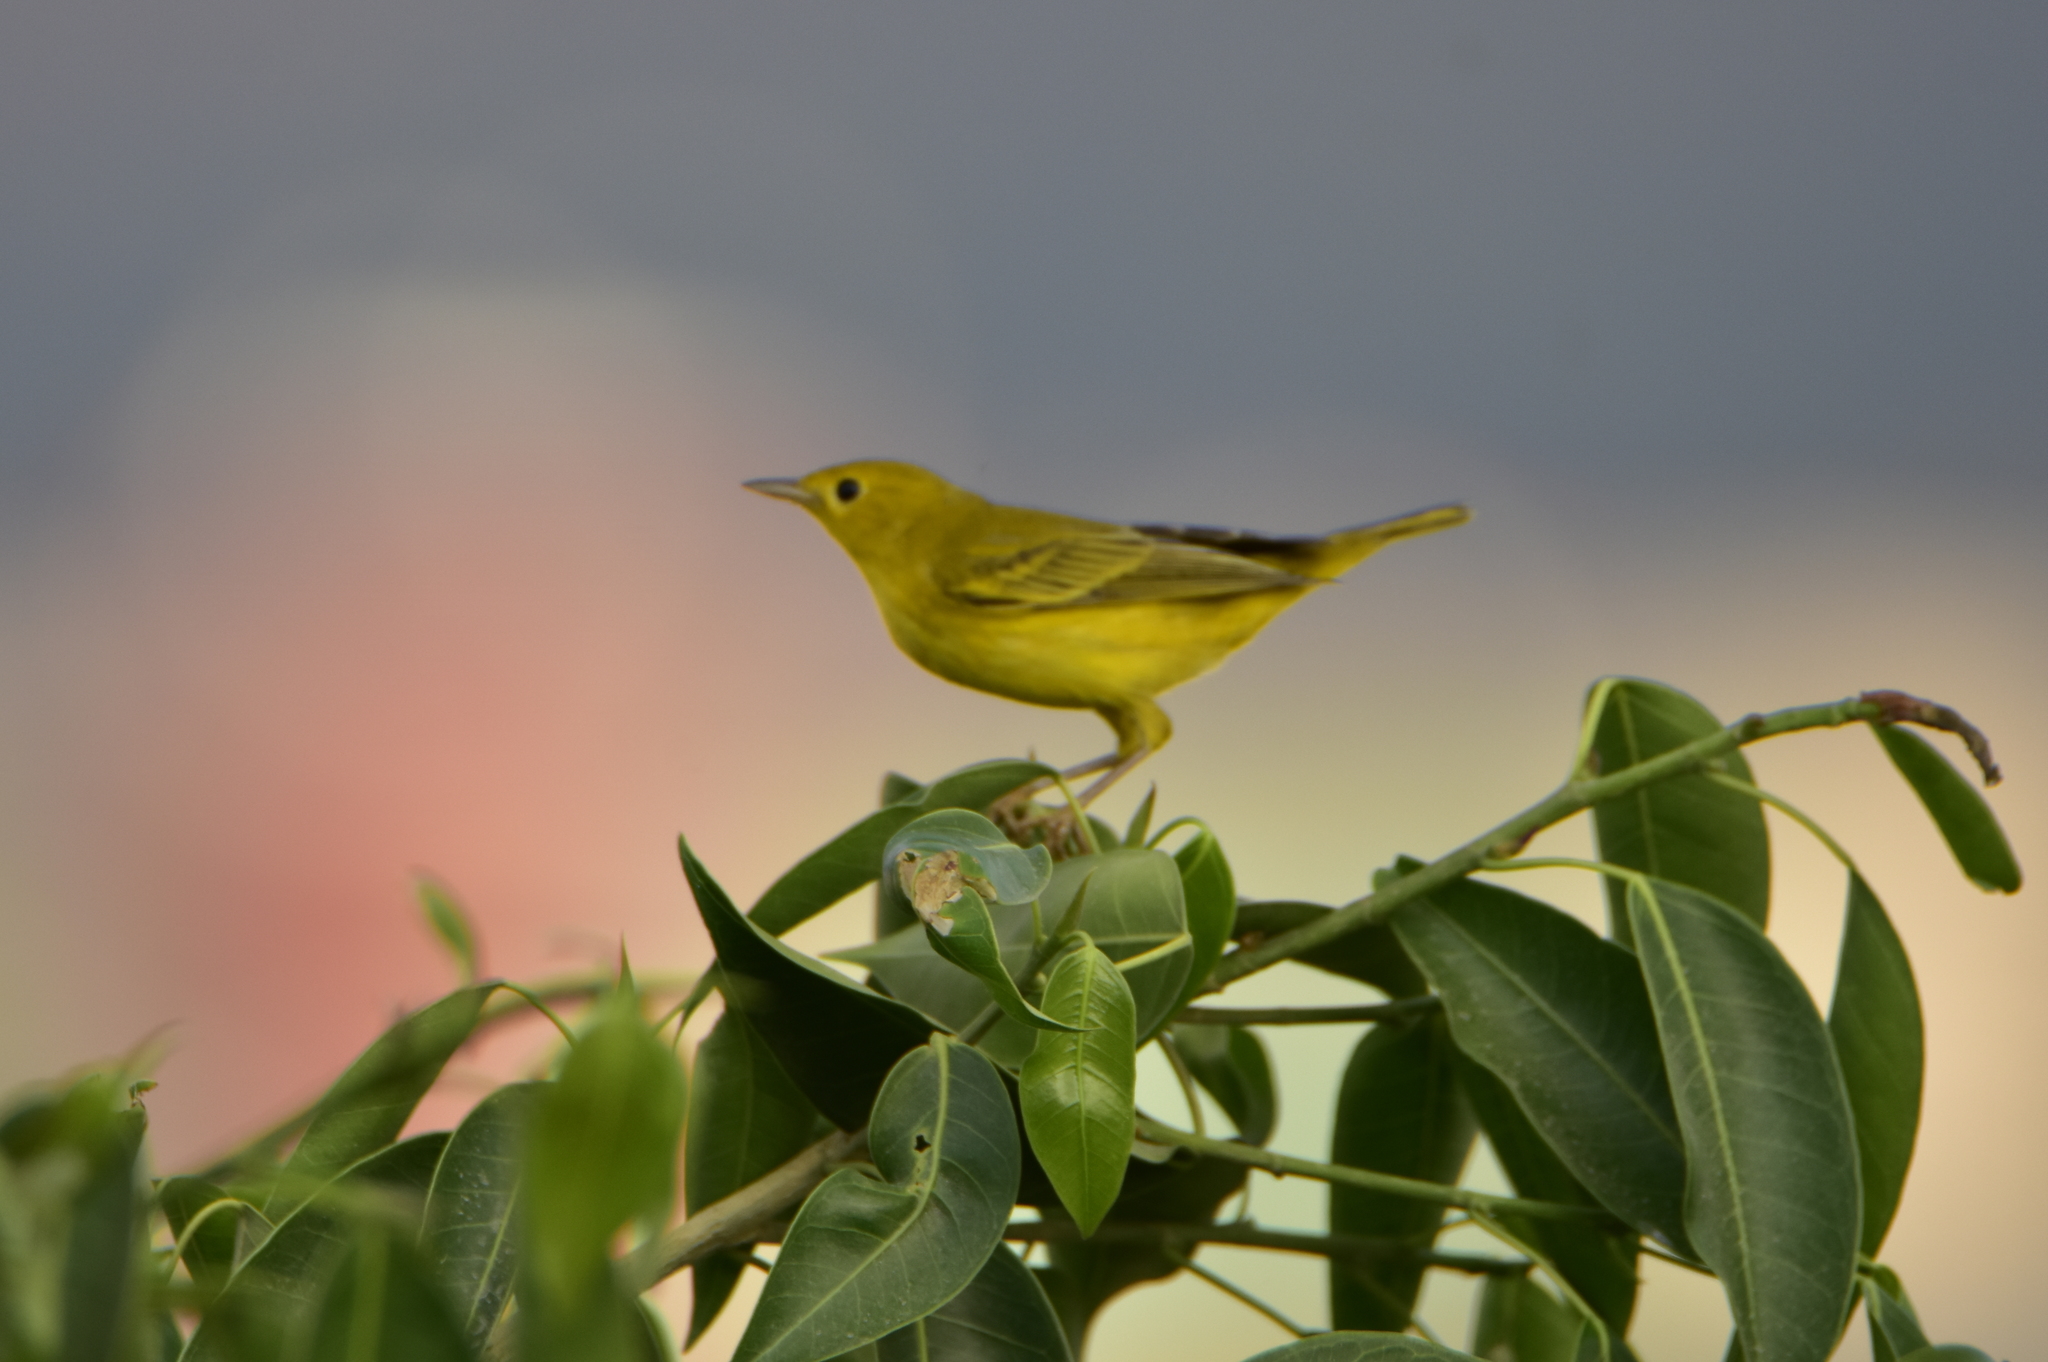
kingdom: Animalia
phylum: Chordata
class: Aves
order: Passeriformes
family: Parulidae
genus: Setophaga
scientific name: Setophaga petechia
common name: Yellow warbler
